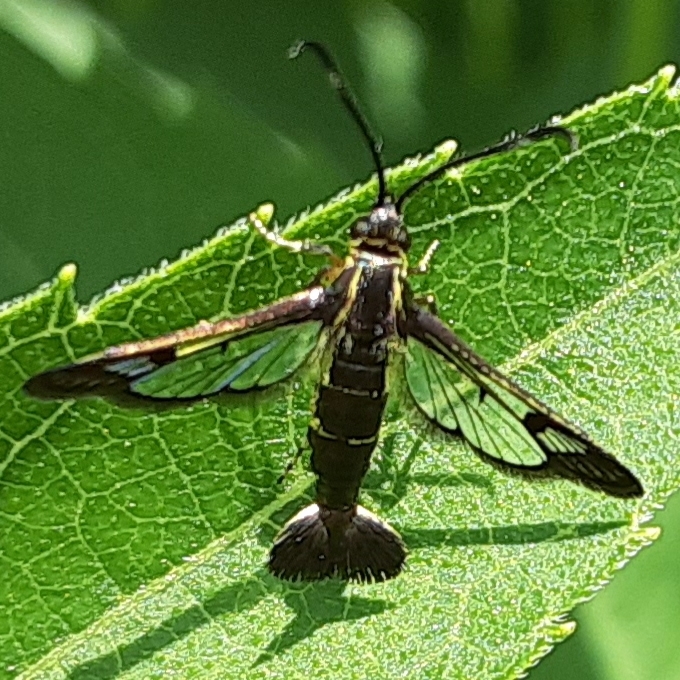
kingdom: Animalia
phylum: Arthropoda
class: Insecta
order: Lepidoptera
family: Sesiidae
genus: Carmenta
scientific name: Carmenta ithacae
